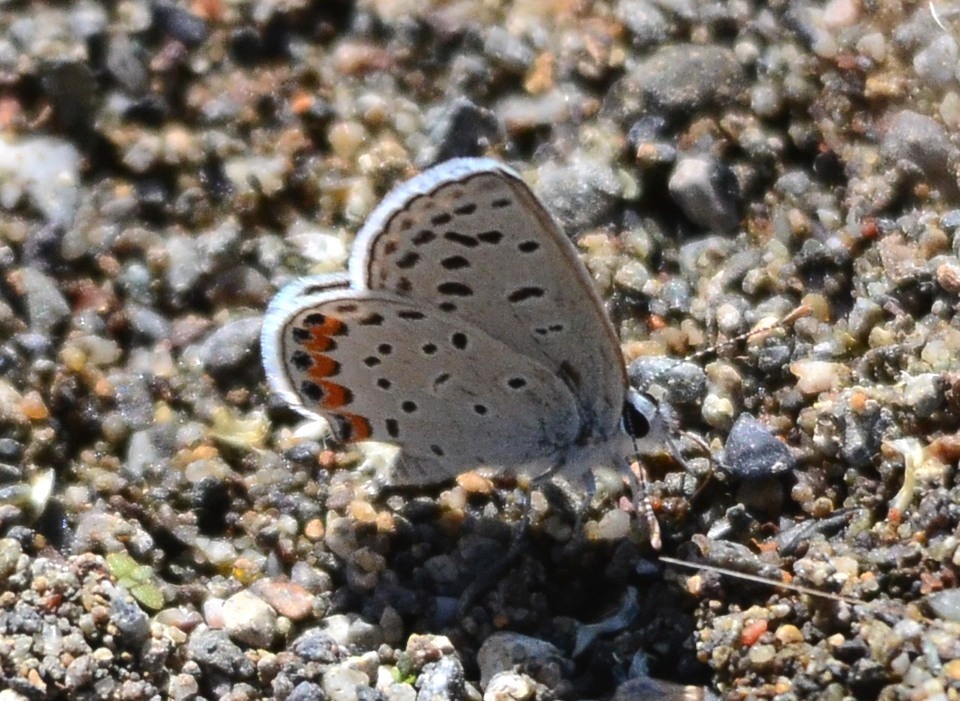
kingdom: Animalia
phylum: Arthropoda
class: Insecta
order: Lepidoptera
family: Lycaenidae
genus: Icaricia
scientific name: Icaricia acmon
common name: Acmon blue
